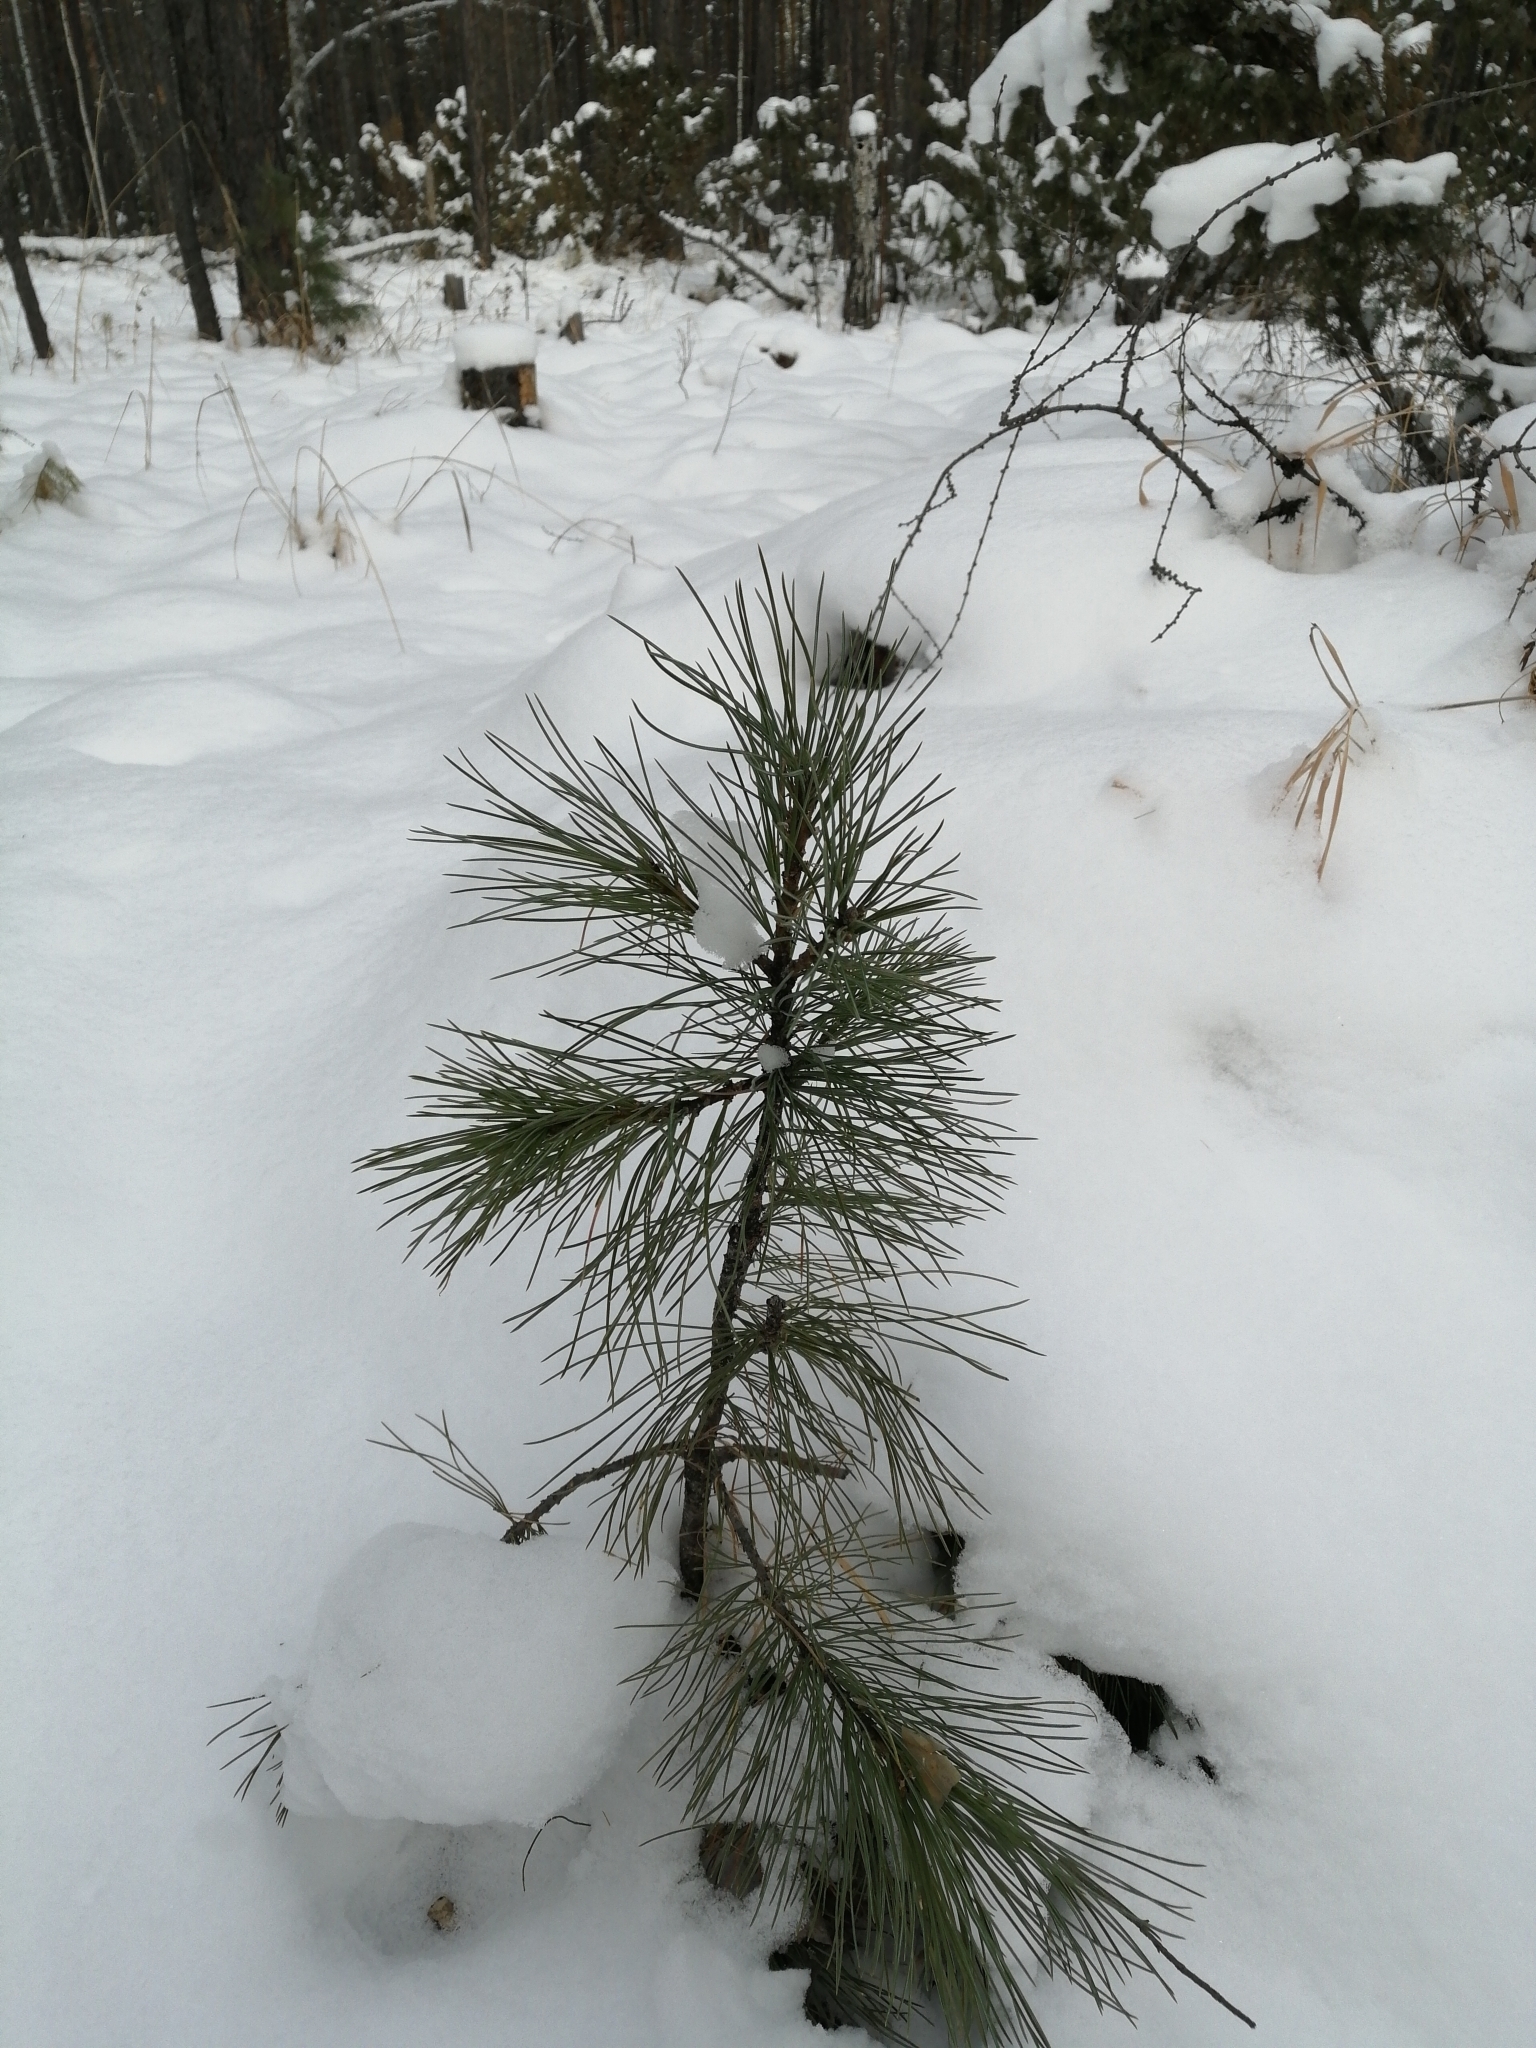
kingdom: Plantae
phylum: Tracheophyta
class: Pinopsida
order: Pinales
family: Pinaceae
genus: Pinus
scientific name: Pinus sibirica
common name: Siberian pine
